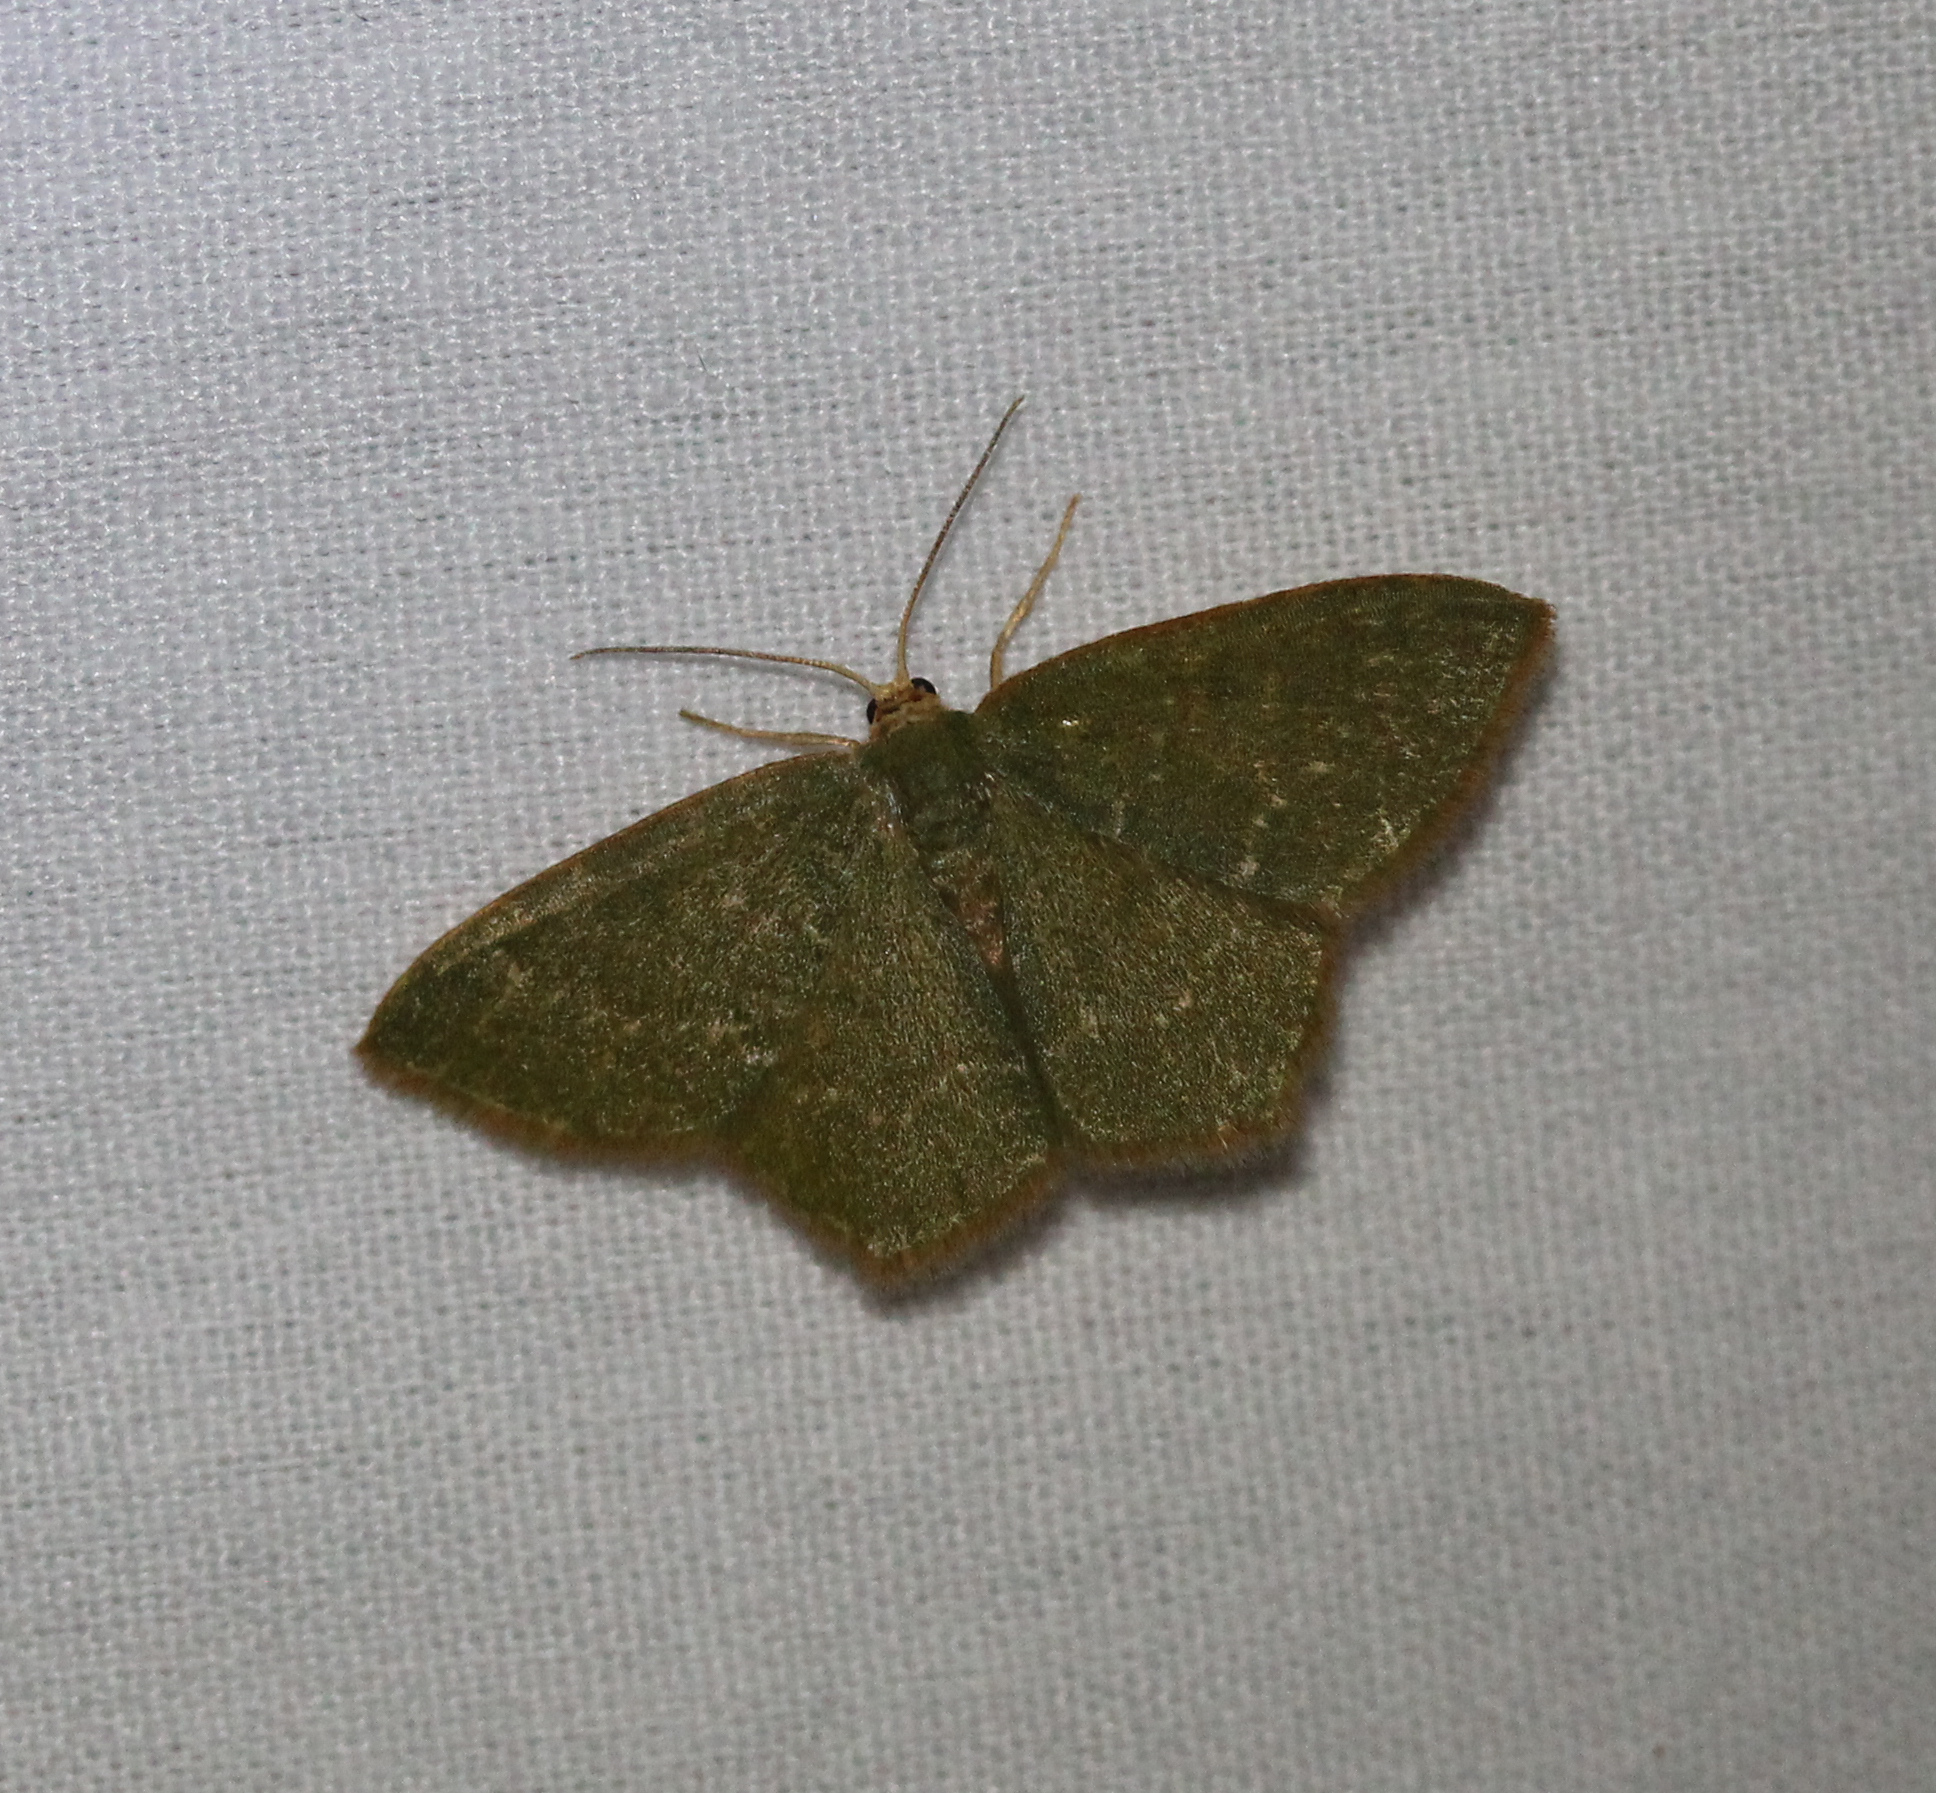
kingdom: Animalia
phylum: Arthropoda
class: Insecta
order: Lepidoptera
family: Geometridae
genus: Thalera
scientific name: Thalera pistasciaria
